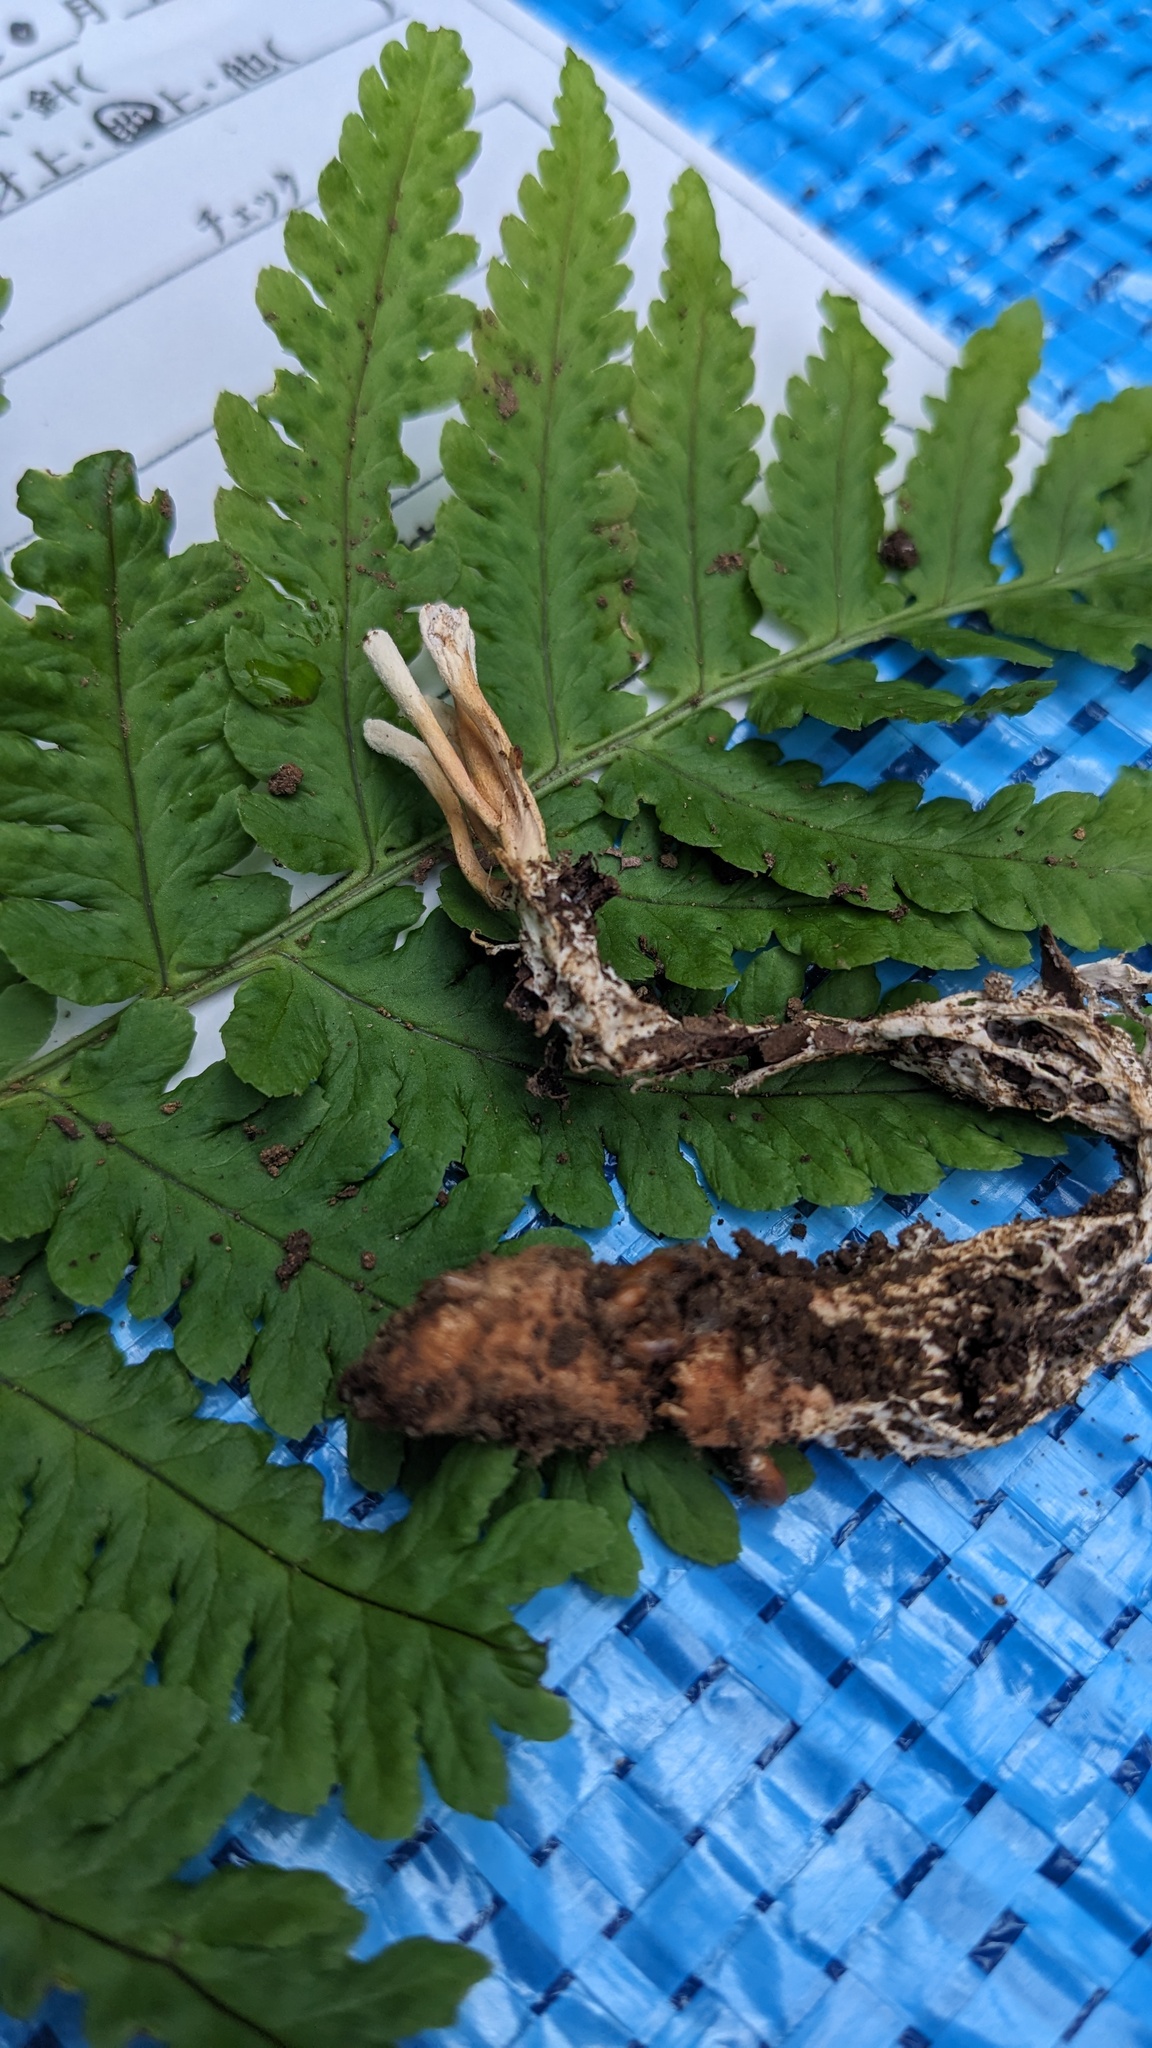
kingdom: Fungi
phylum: Ascomycota
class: Sordariomycetes
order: Hypocreales
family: Cordycipitaceae
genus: Isaria
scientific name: Isaria cicadae
